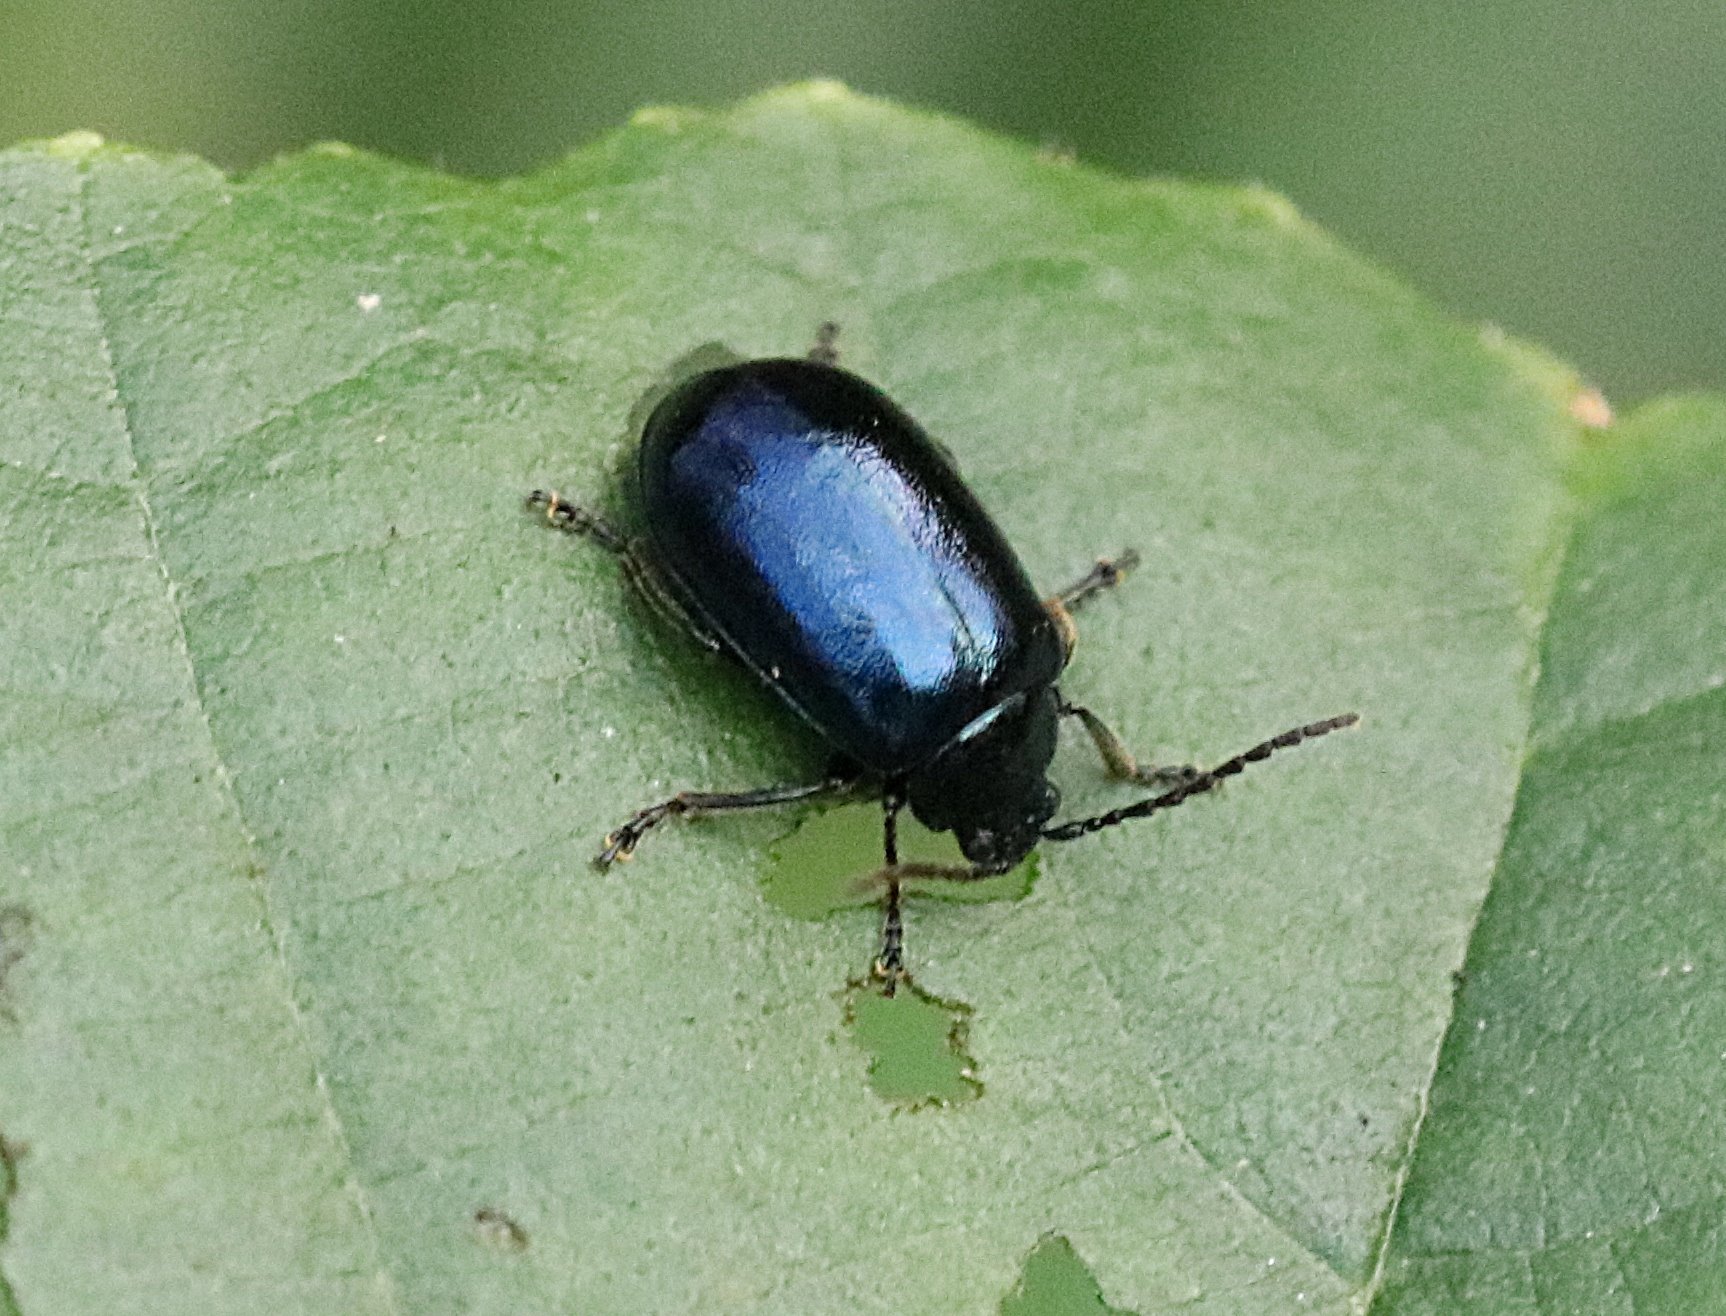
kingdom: Animalia
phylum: Arthropoda
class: Insecta
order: Coleoptera
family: Chrysomelidae
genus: Agelastica
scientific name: Agelastica alni
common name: Alder leaf beetle
